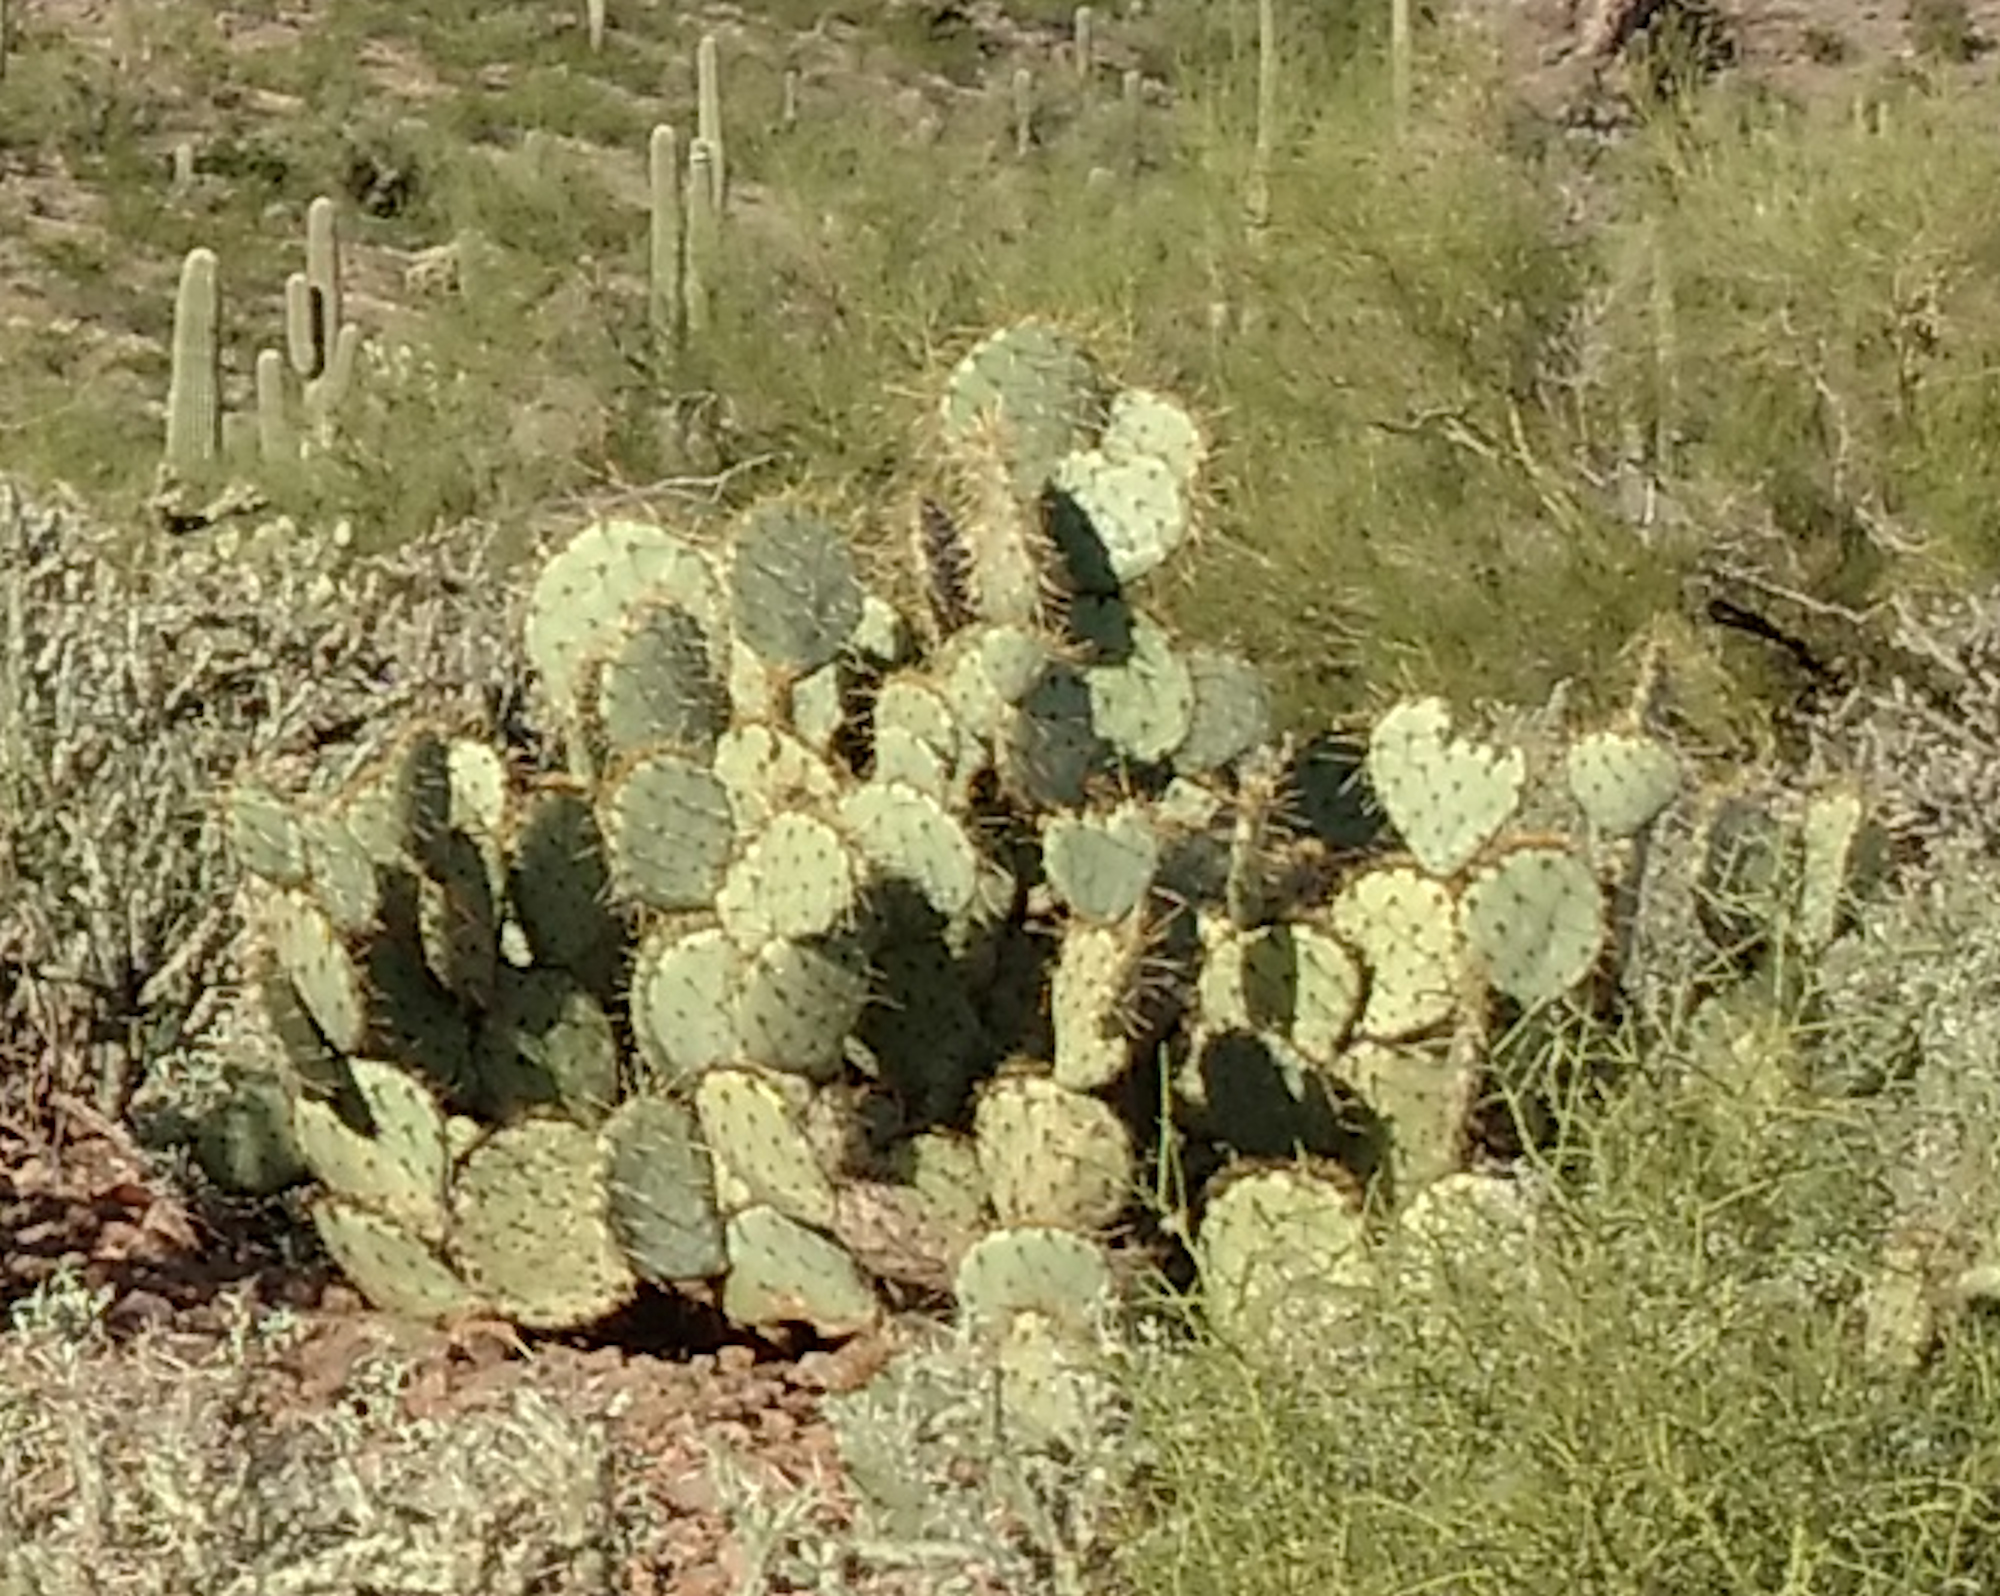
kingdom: Plantae
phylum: Tracheophyta
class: Magnoliopsida
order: Caryophyllales
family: Cactaceae
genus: Opuntia
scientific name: Opuntia engelmannii
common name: Cactus-apple
